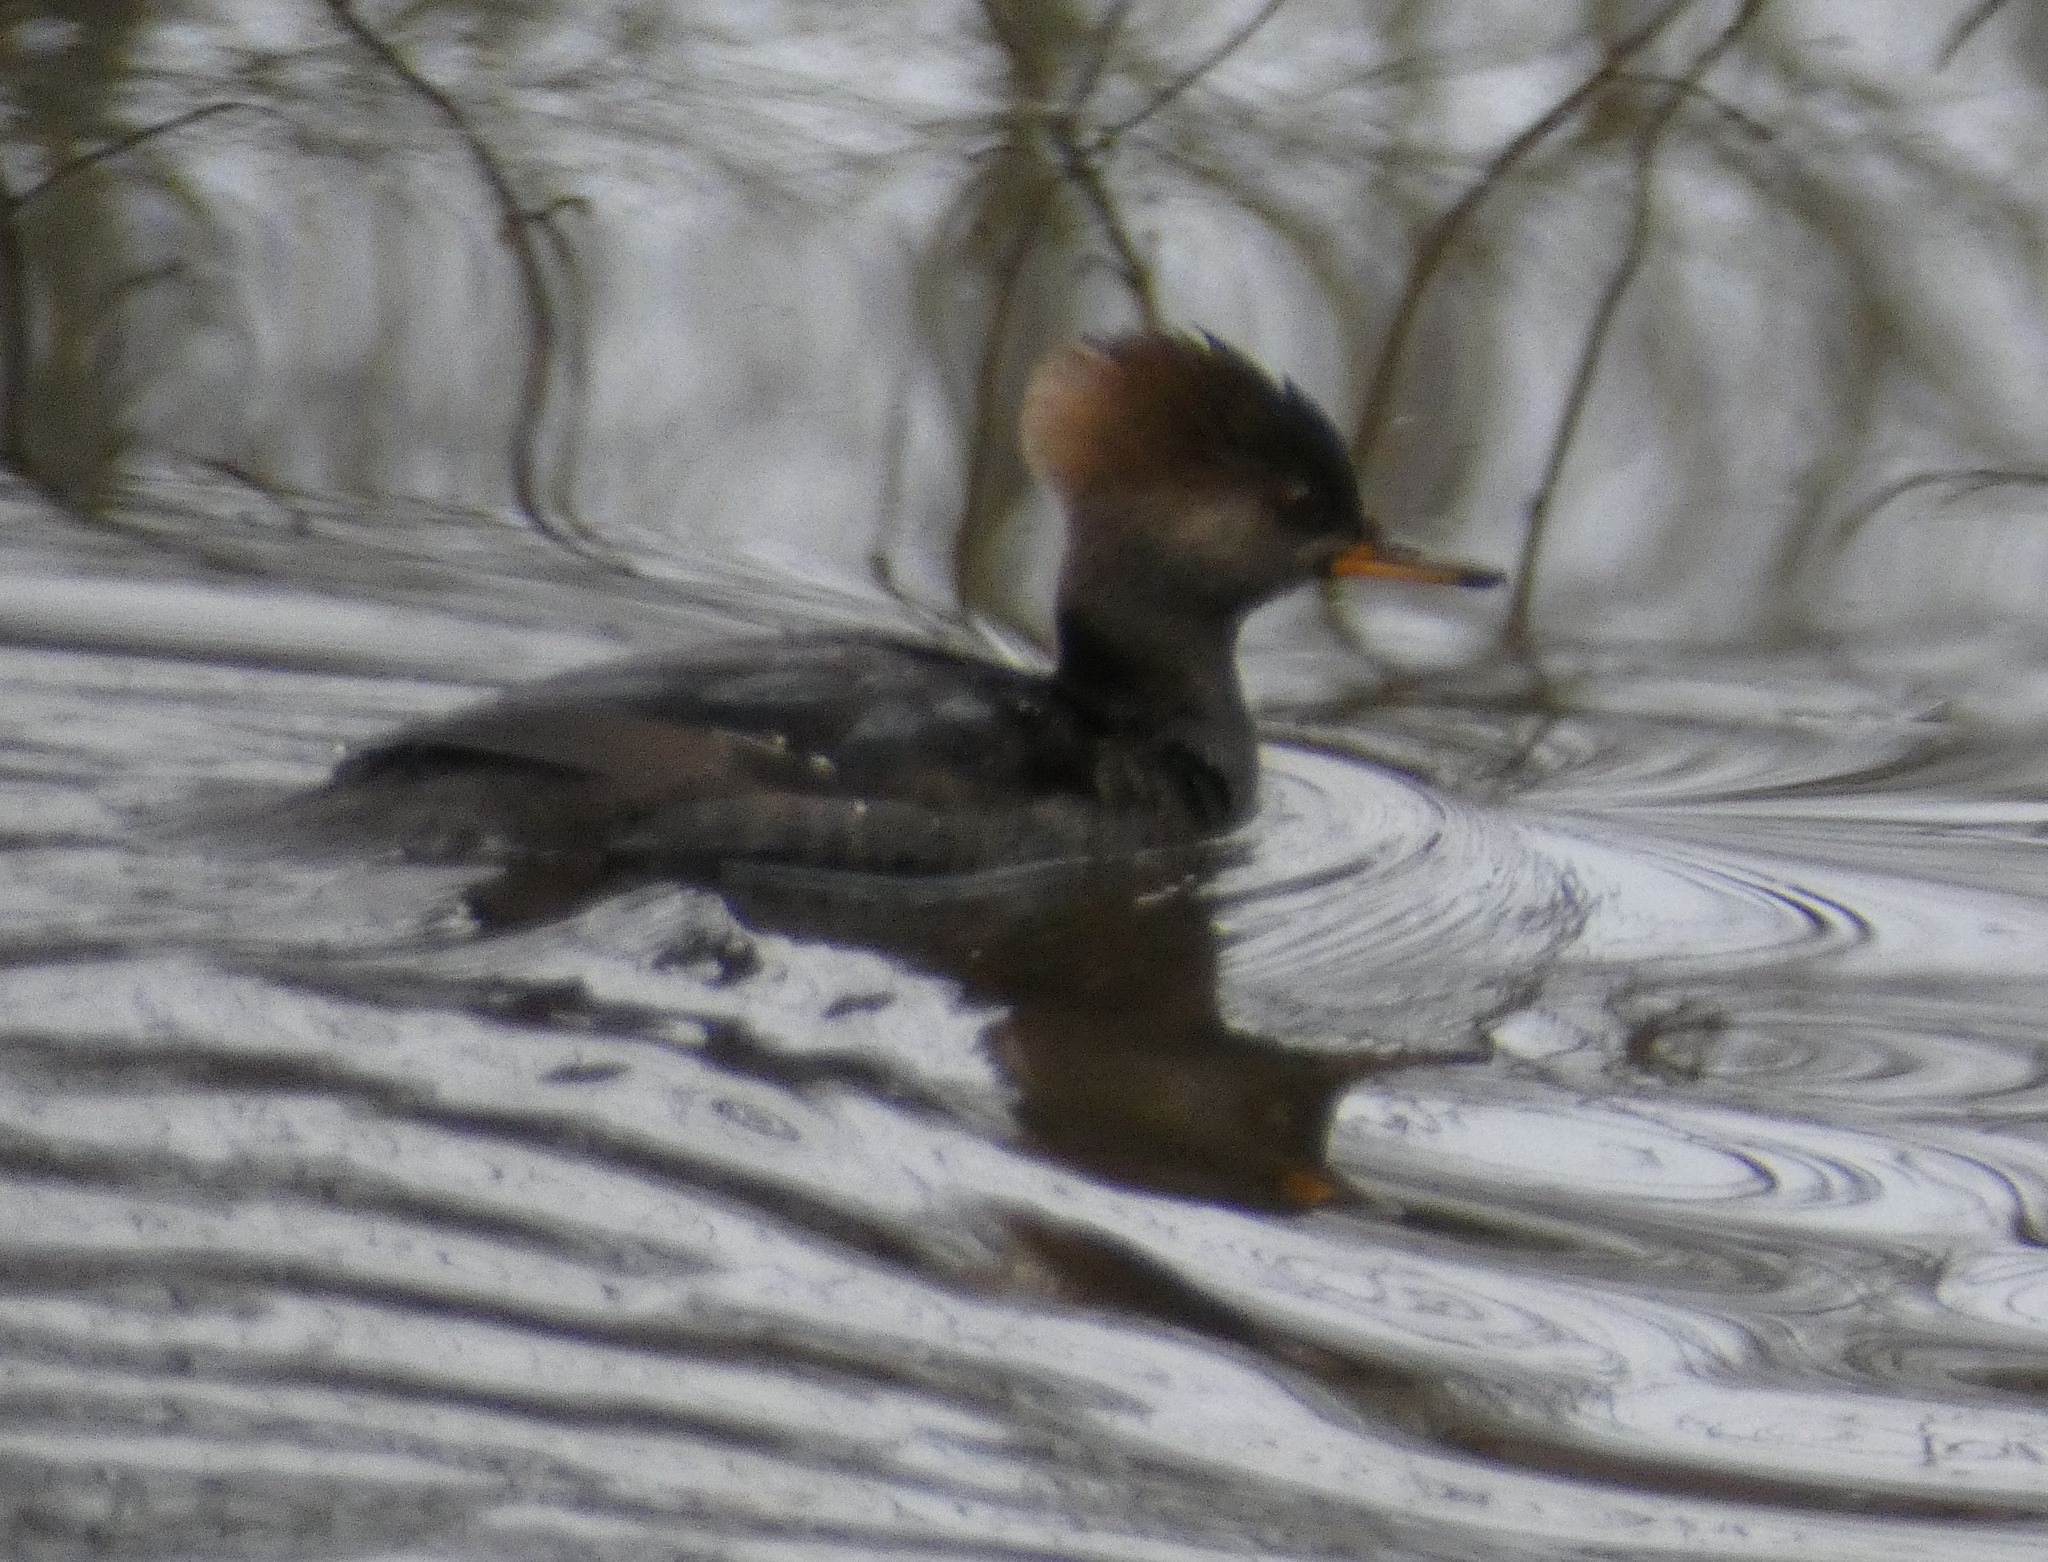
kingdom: Animalia
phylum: Chordata
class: Aves
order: Anseriformes
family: Anatidae
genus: Lophodytes
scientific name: Lophodytes cucullatus
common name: Hooded merganser
